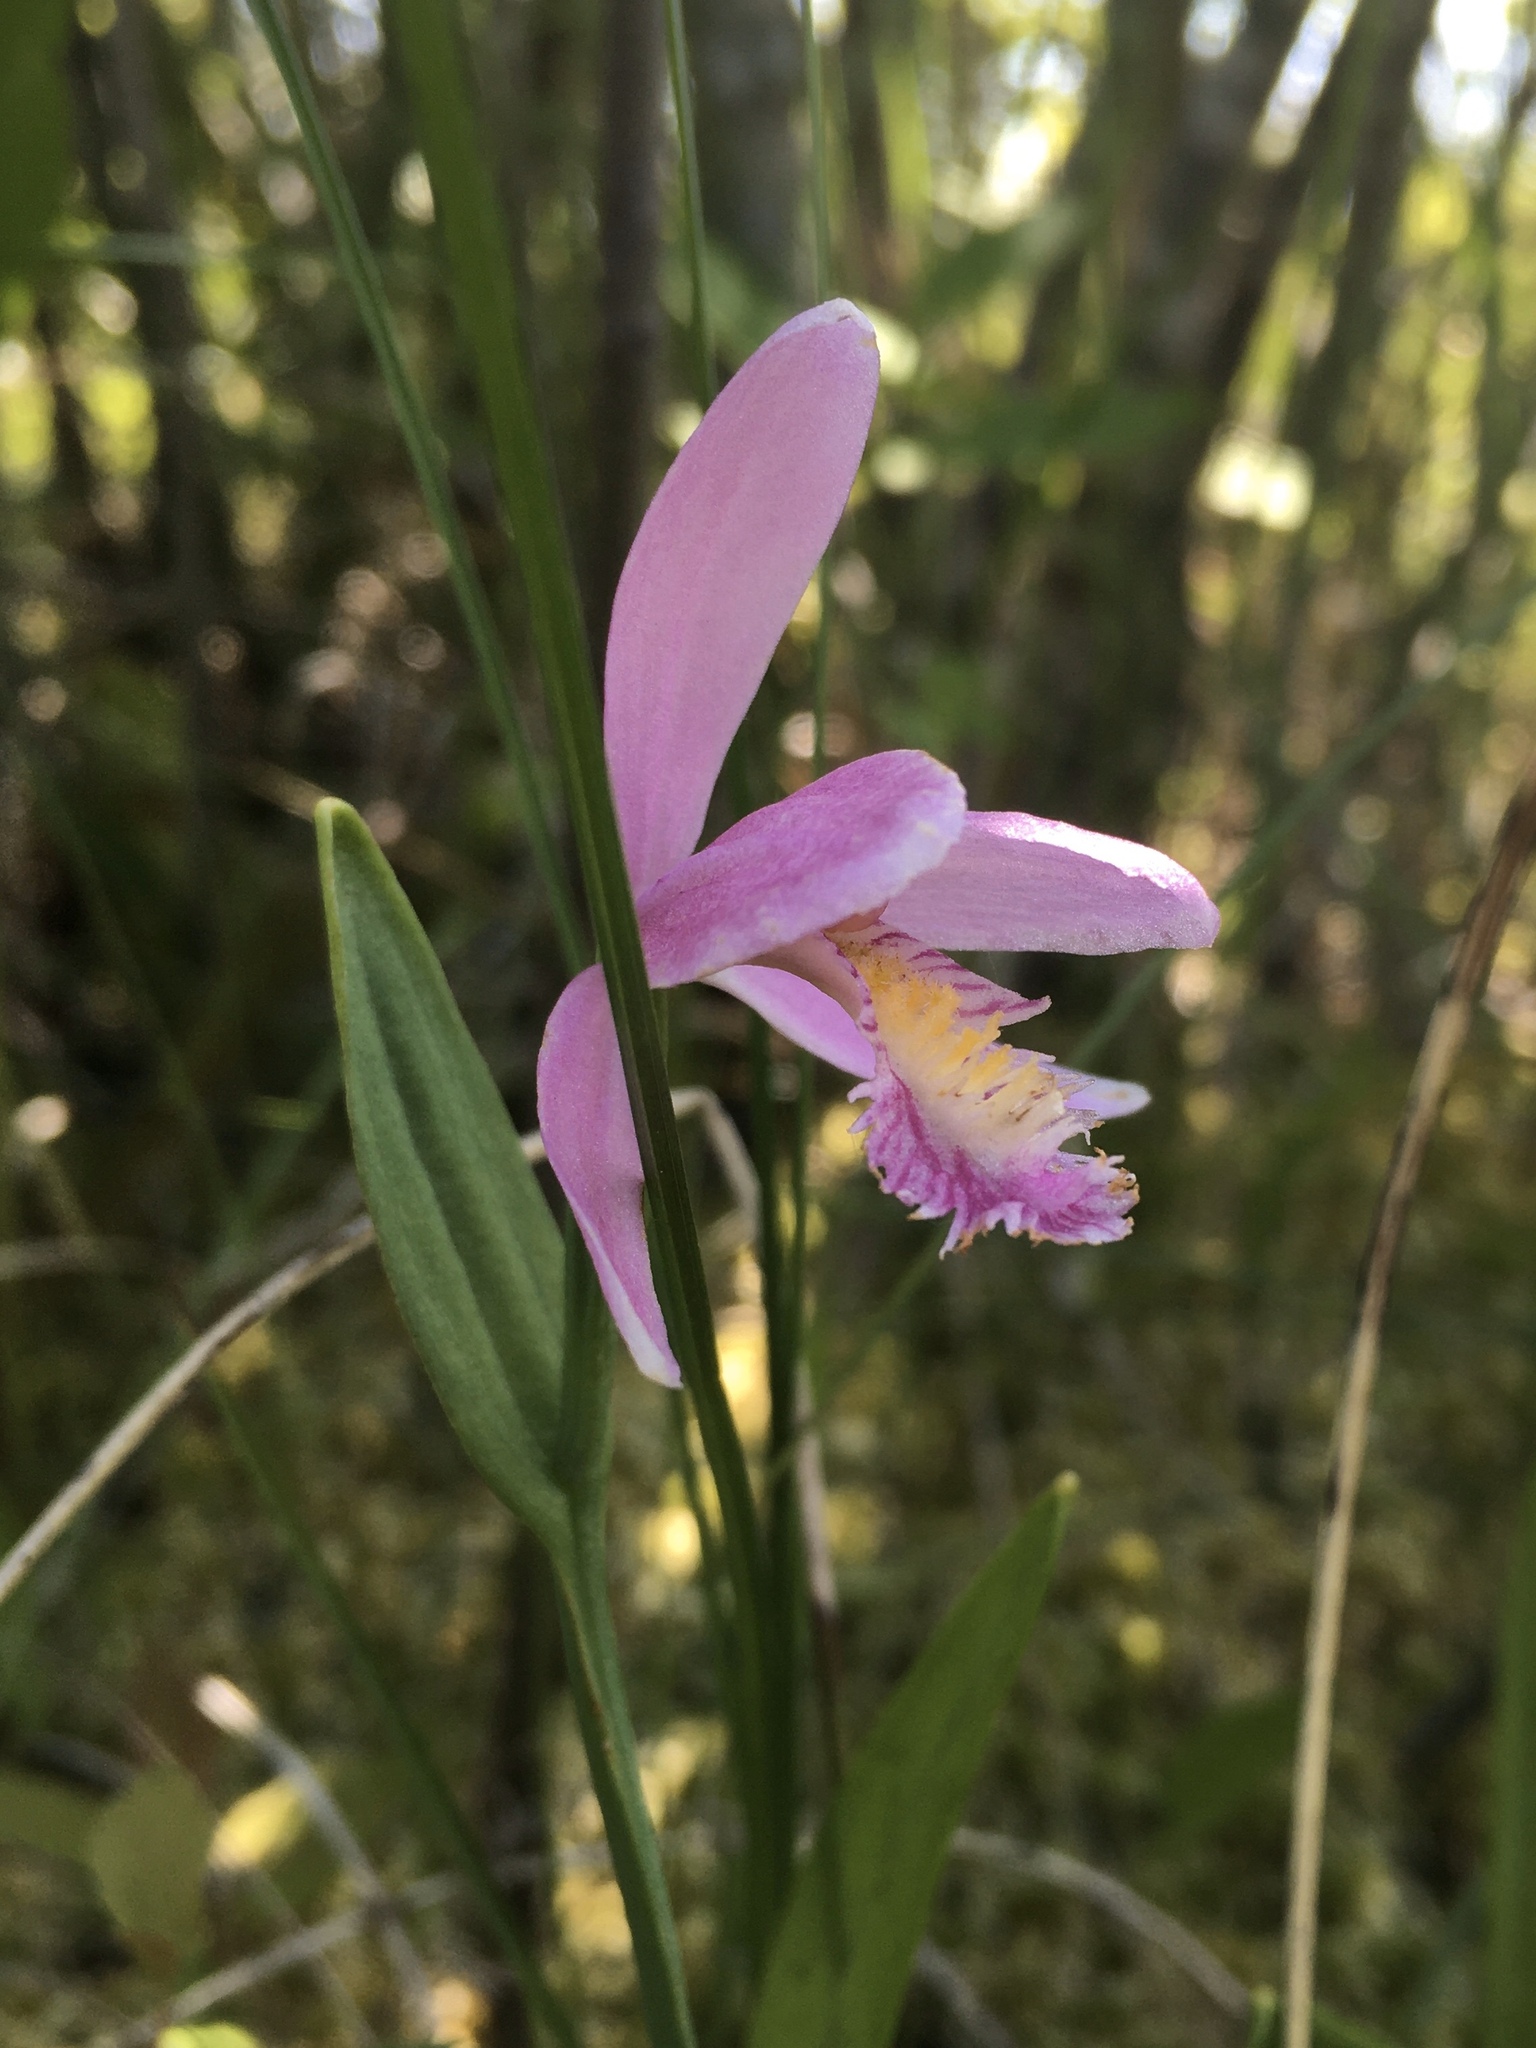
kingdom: Plantae
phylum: Tracheophyta
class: Liliopsida
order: Asparagales
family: Orchidaceae
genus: Pogonia
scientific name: Pogonia ophioglossoides
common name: Rose pogonia
